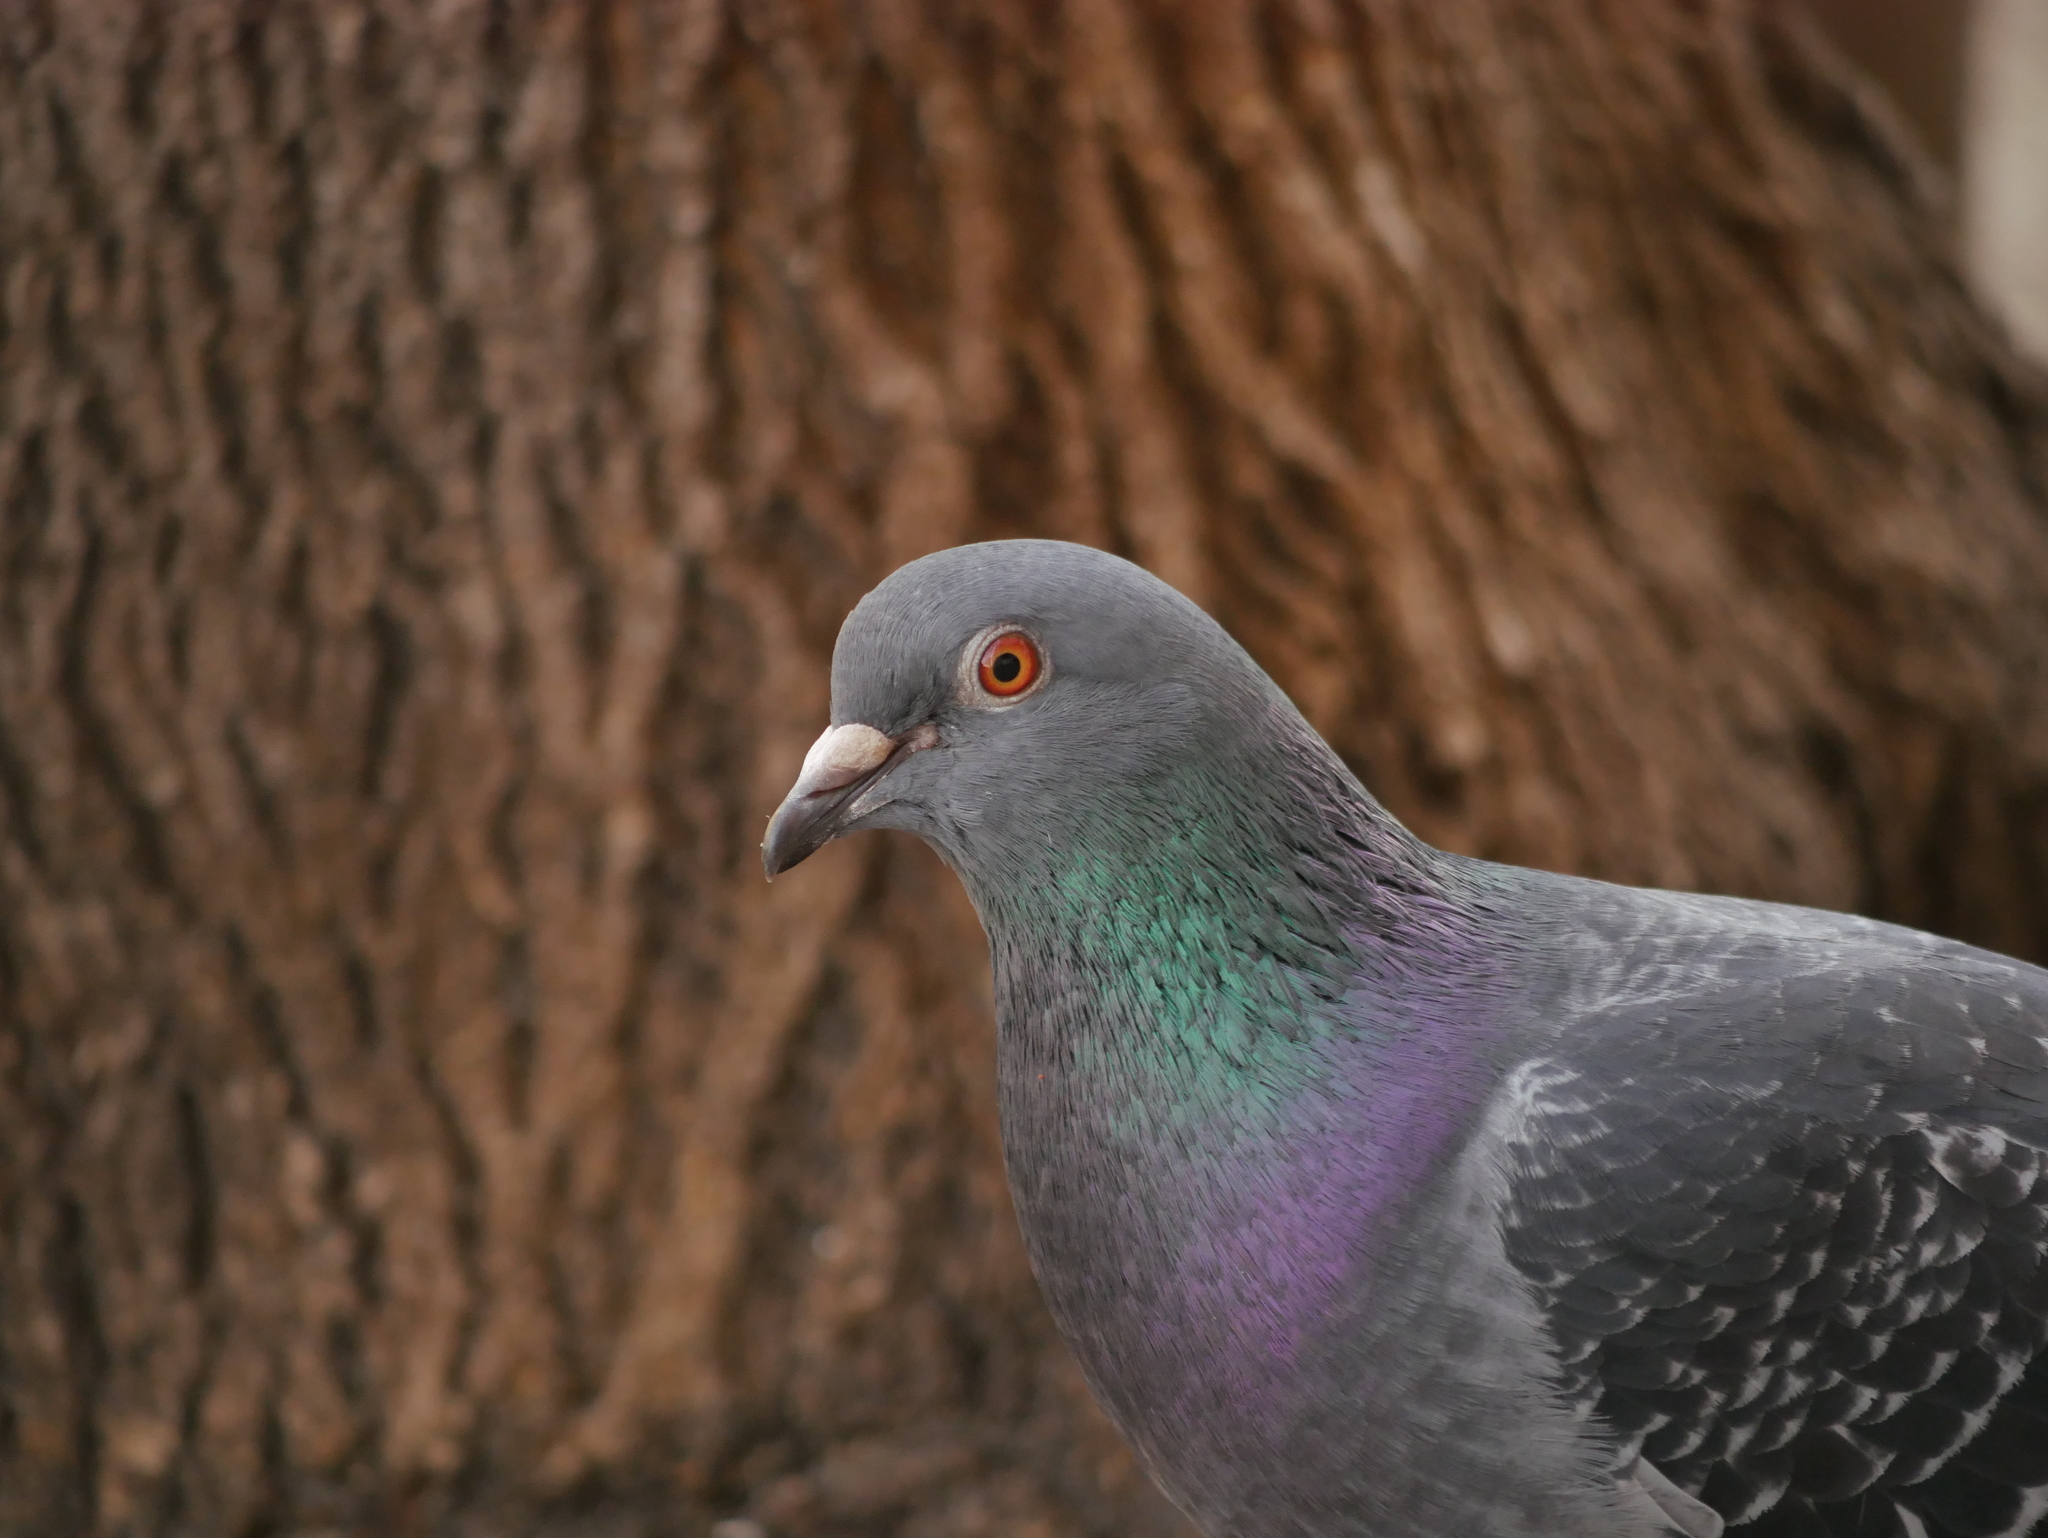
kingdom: Animalia
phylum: Chordata
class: Aves
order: Columbiformes
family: Columbidae
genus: Columba
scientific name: Columba livia
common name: Rock pigeon
